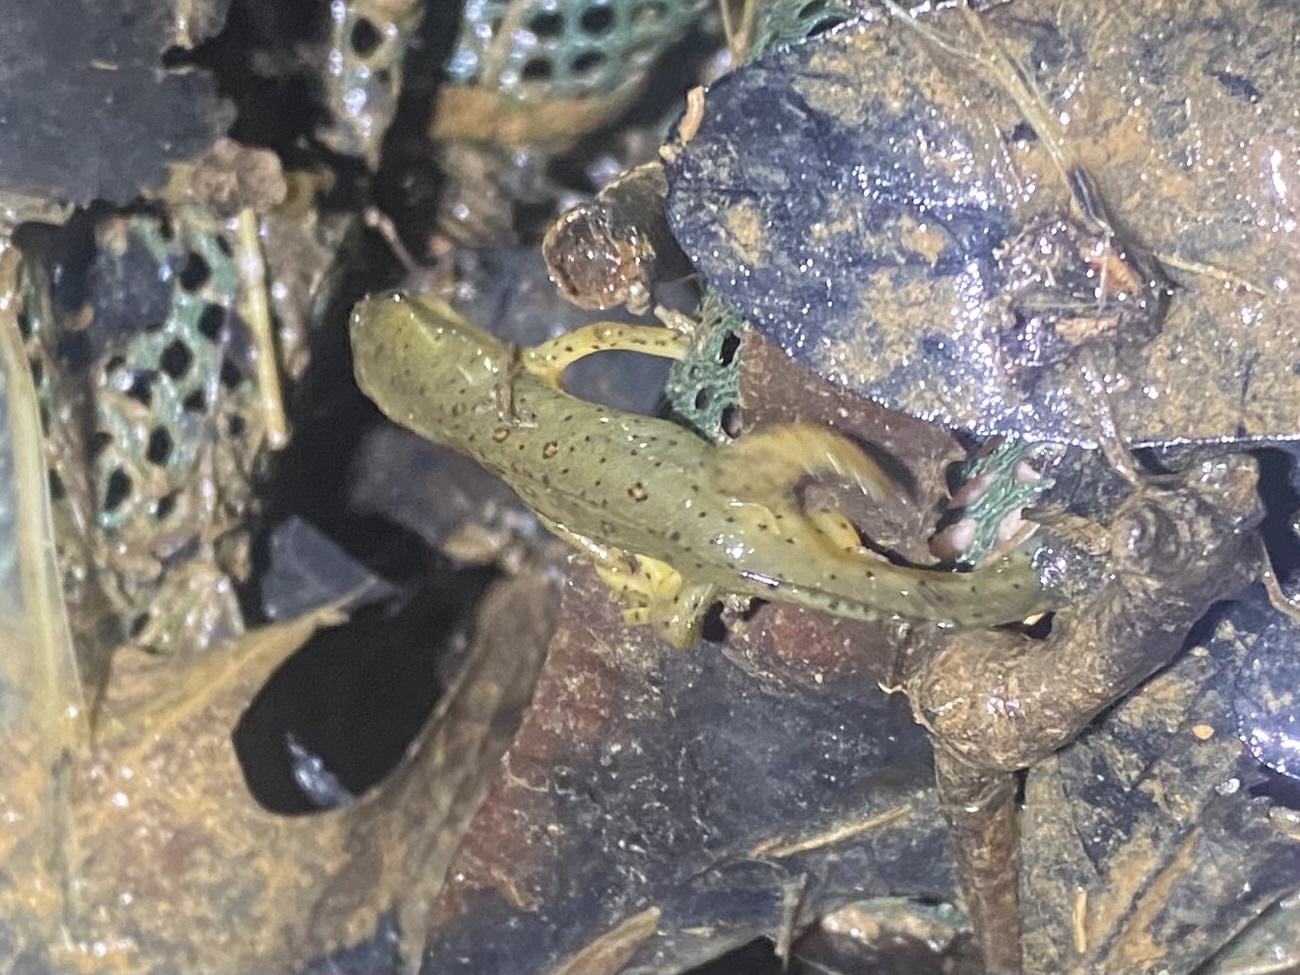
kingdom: Animalia
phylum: Chordata
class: Amphibia
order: Caudata
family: Salamandridae
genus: Notophthalmus
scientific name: Notophthalmus viridescens
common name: Eastern newt
